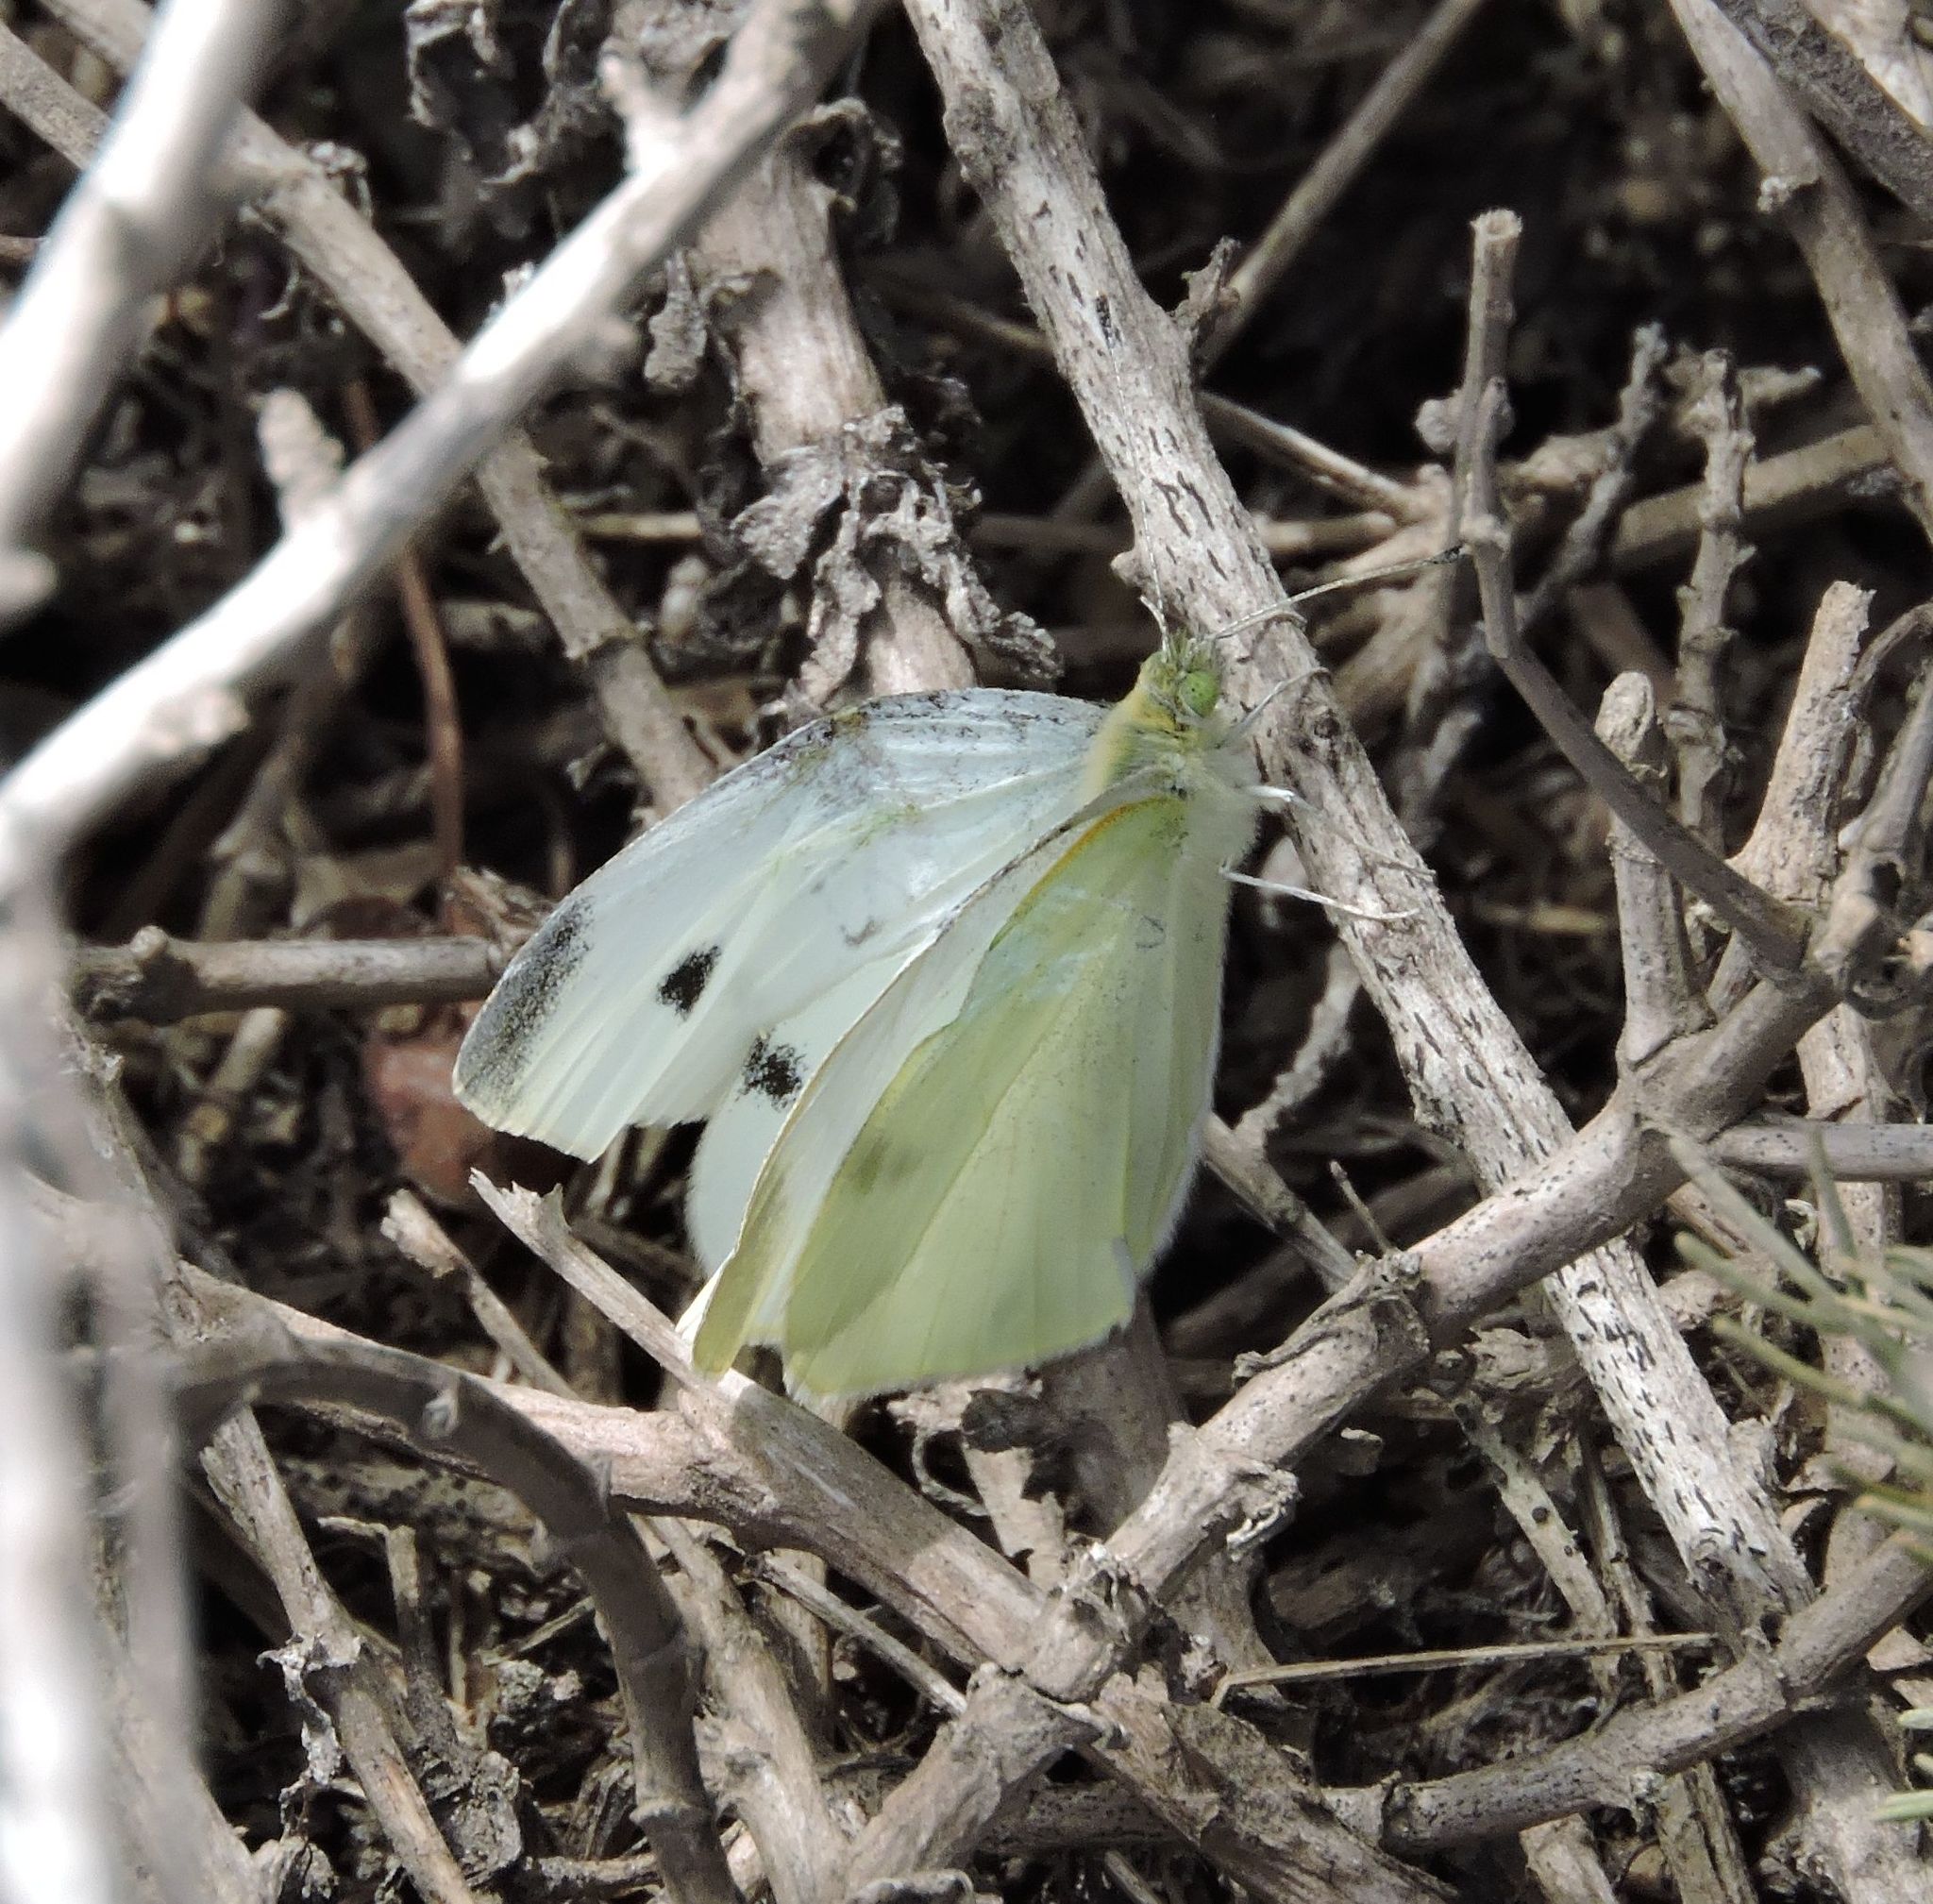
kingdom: Animalia
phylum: Arthropoda
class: Insecta
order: Lepidoptera
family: Pieridae
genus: Pieris
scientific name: Pieris rapae
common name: Small white
